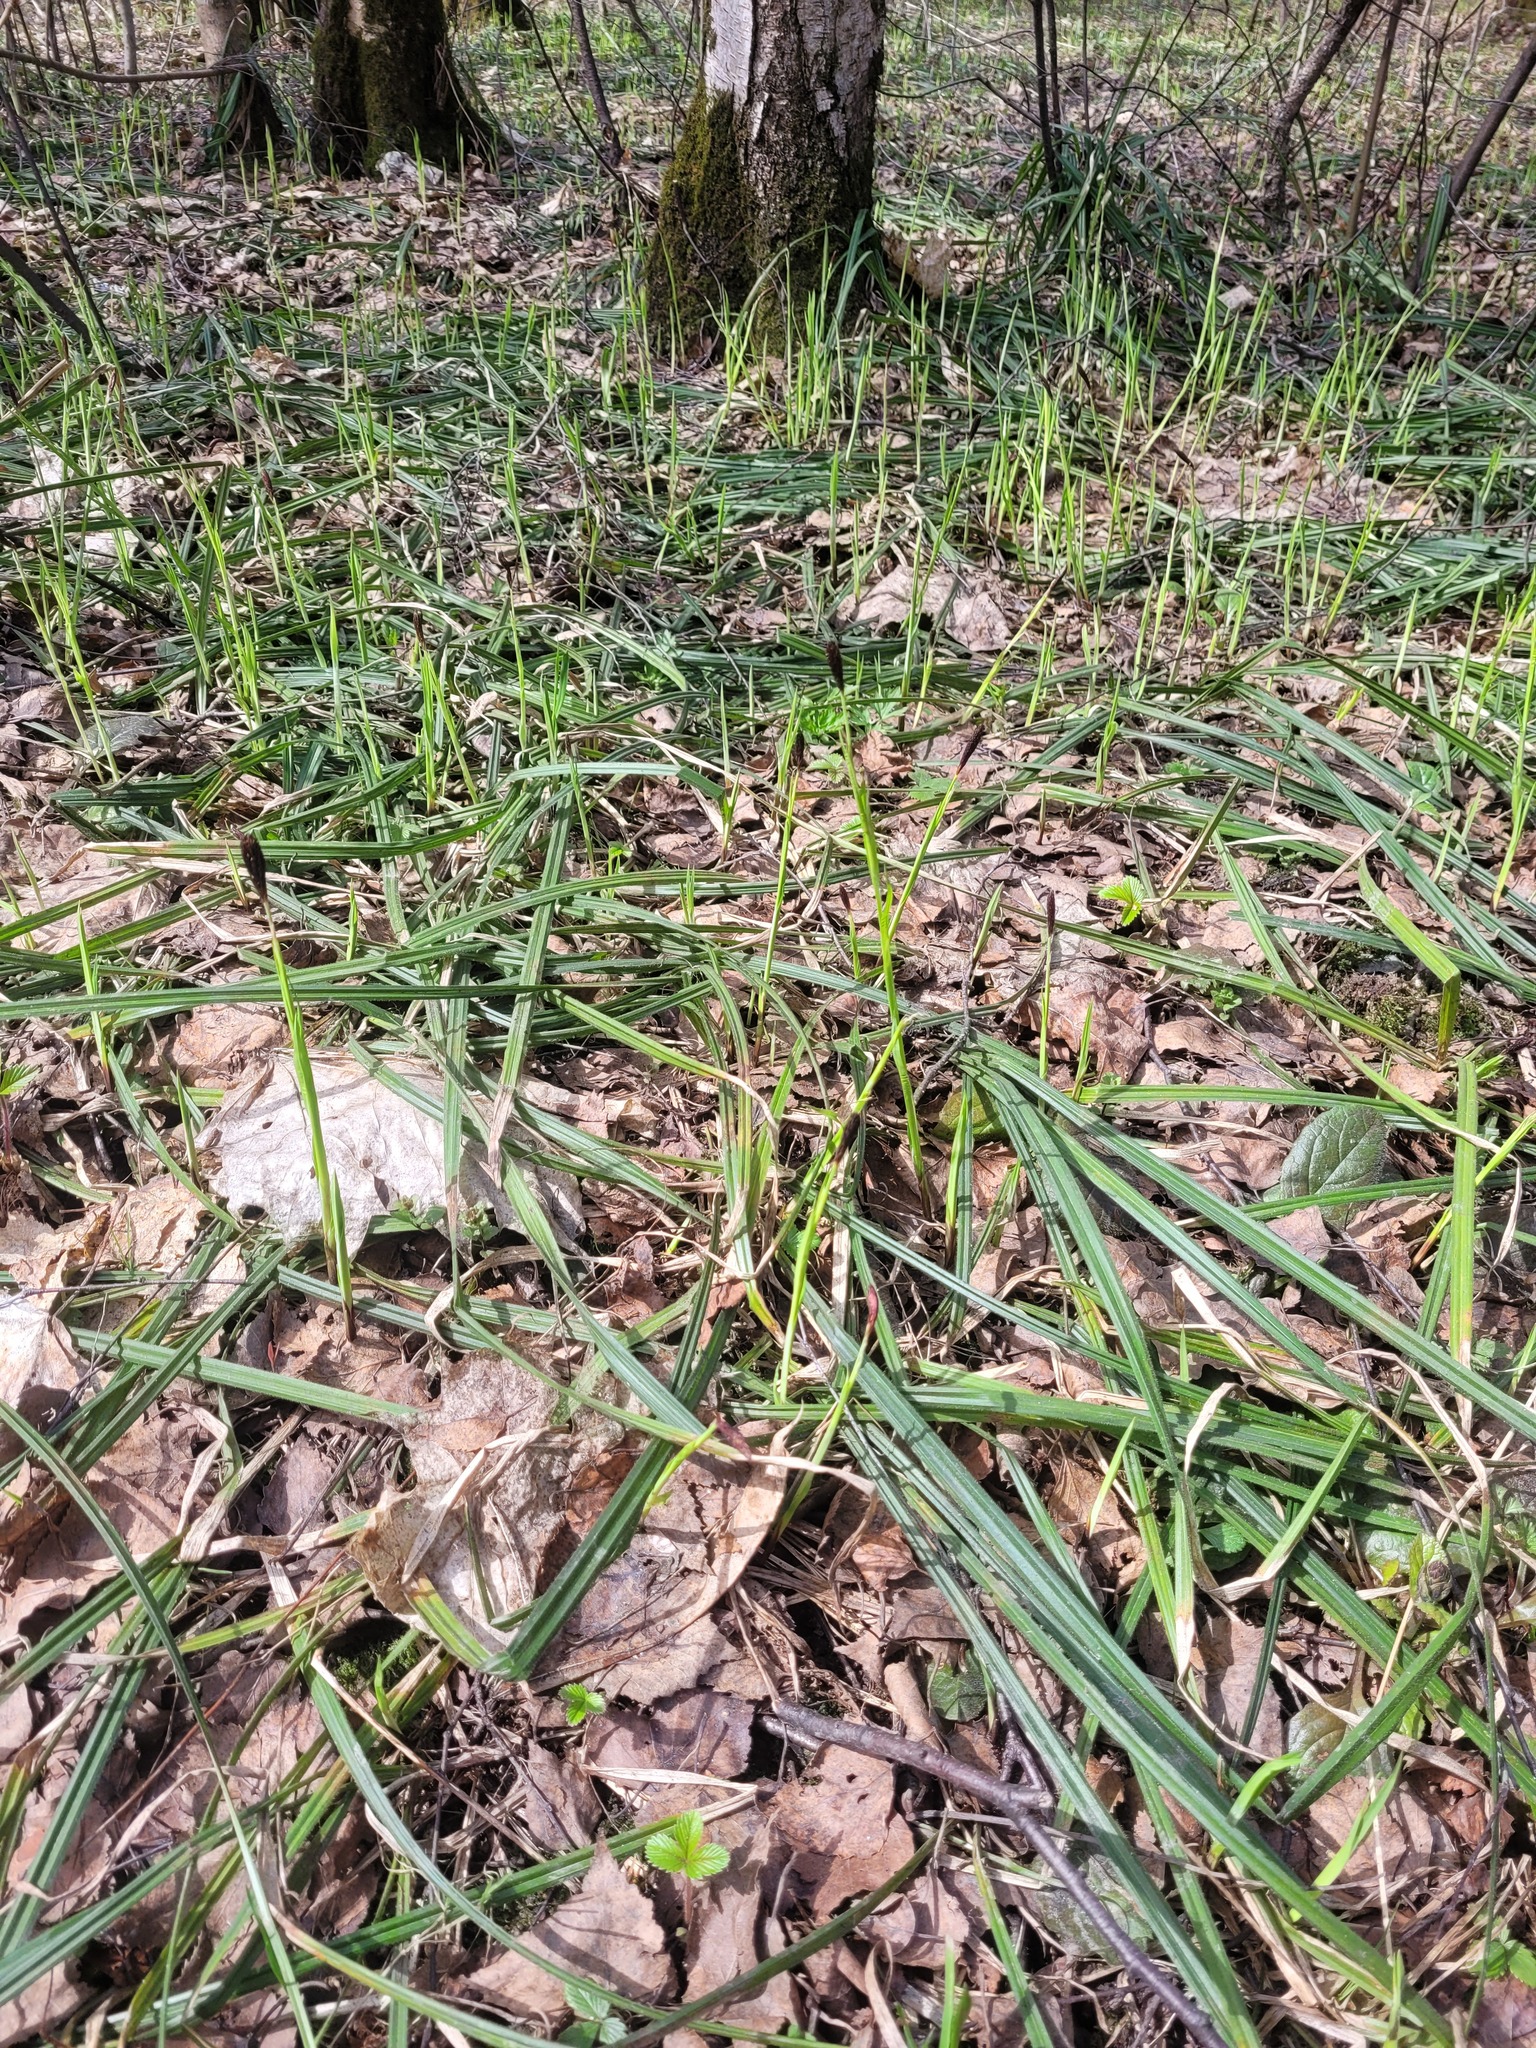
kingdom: Plantae
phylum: Tracheophyta
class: Liliopsida
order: Poales
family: Cyperaceae
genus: Carex
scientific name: Carex pilosa
